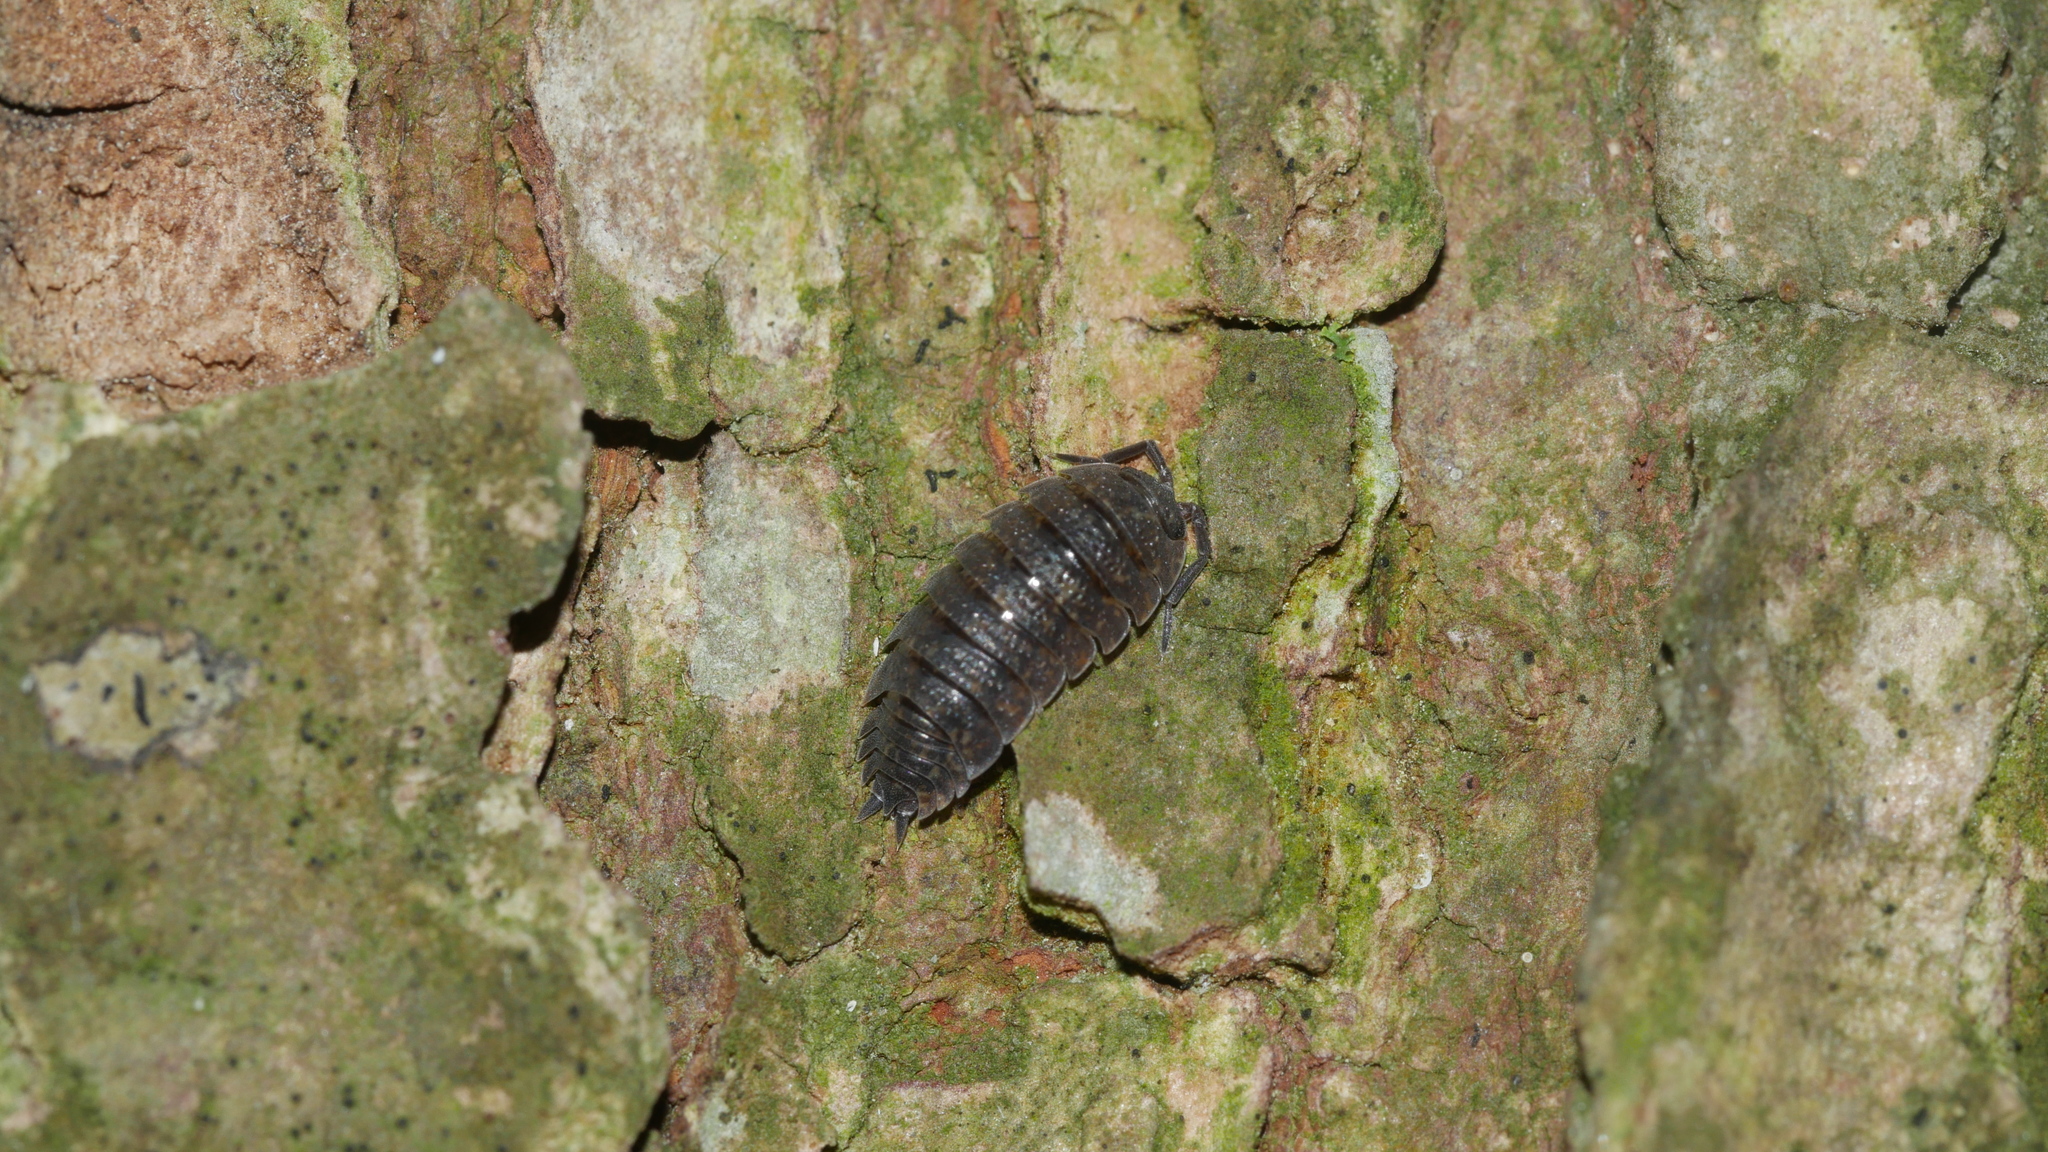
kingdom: Animalia
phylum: Arthropoda
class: Malacostraca
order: Isopoda
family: Porcellionidae
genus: Porcellio
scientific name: Porcellio scaber
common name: Common rough woodlouse
